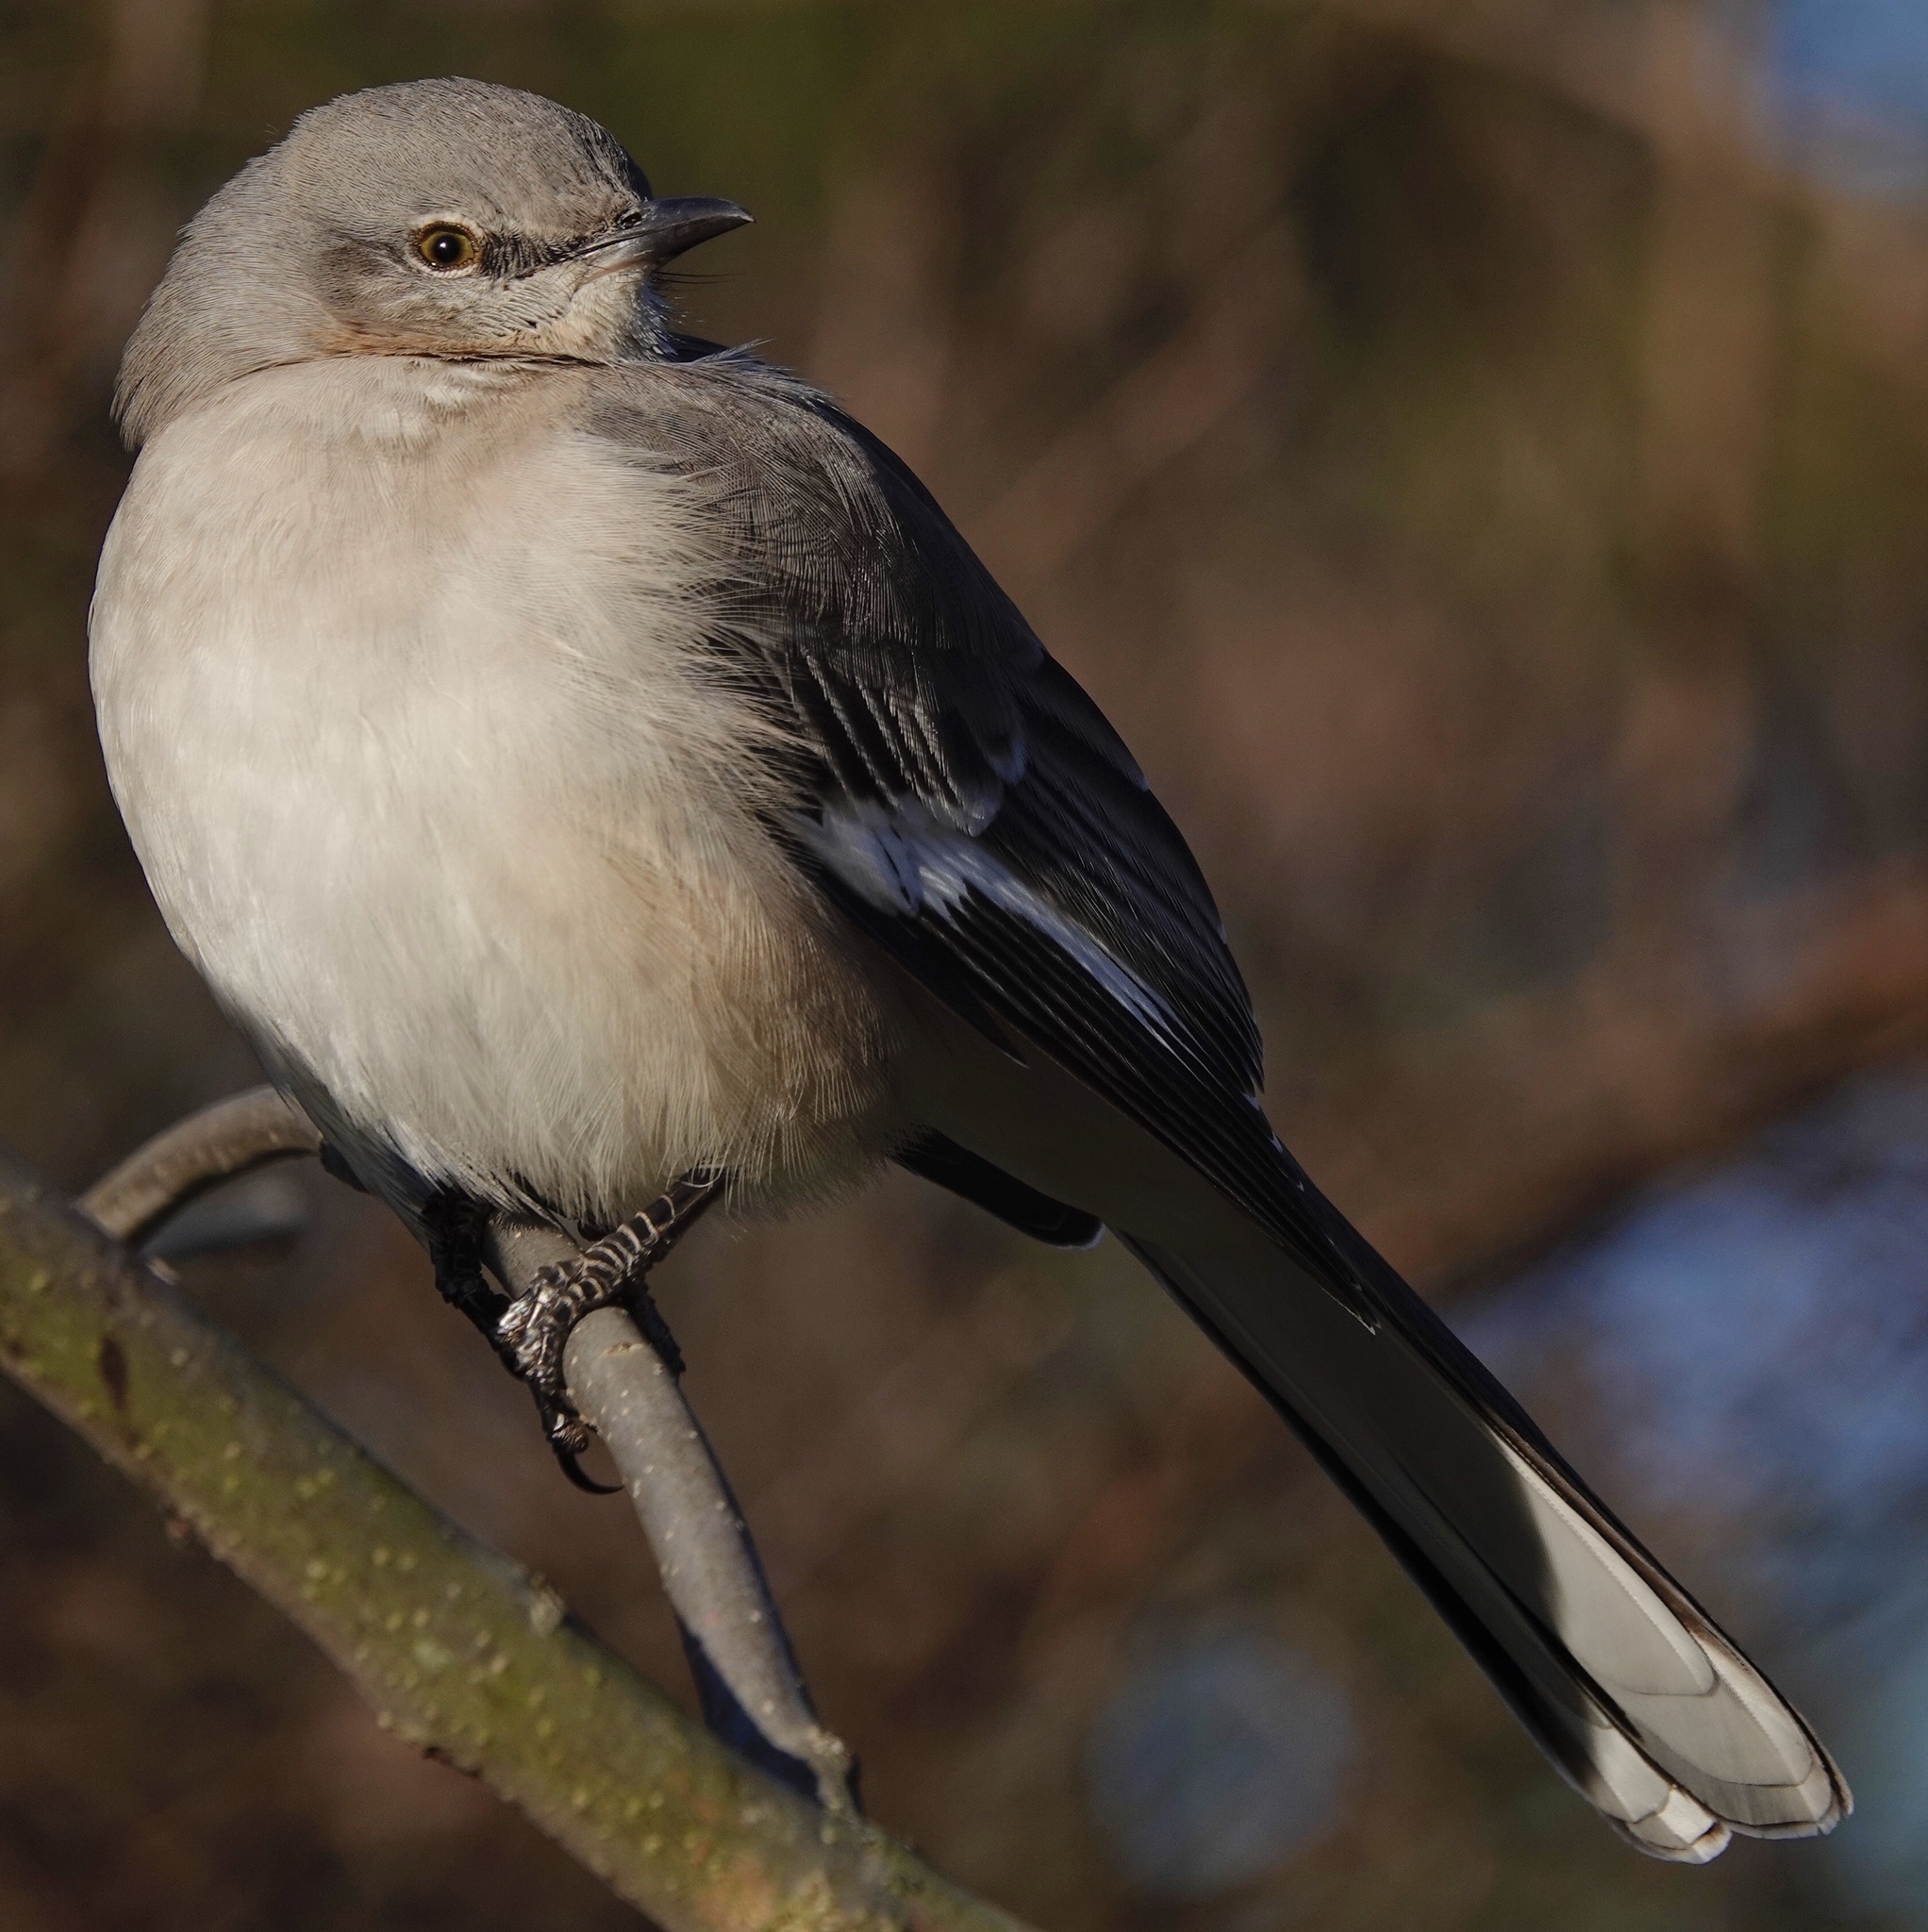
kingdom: Animalia
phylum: Chordata
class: Aves
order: Passeriformes
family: Mimidae
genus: Mimus
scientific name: Mimus polyglottos
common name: Northern mockingbird
